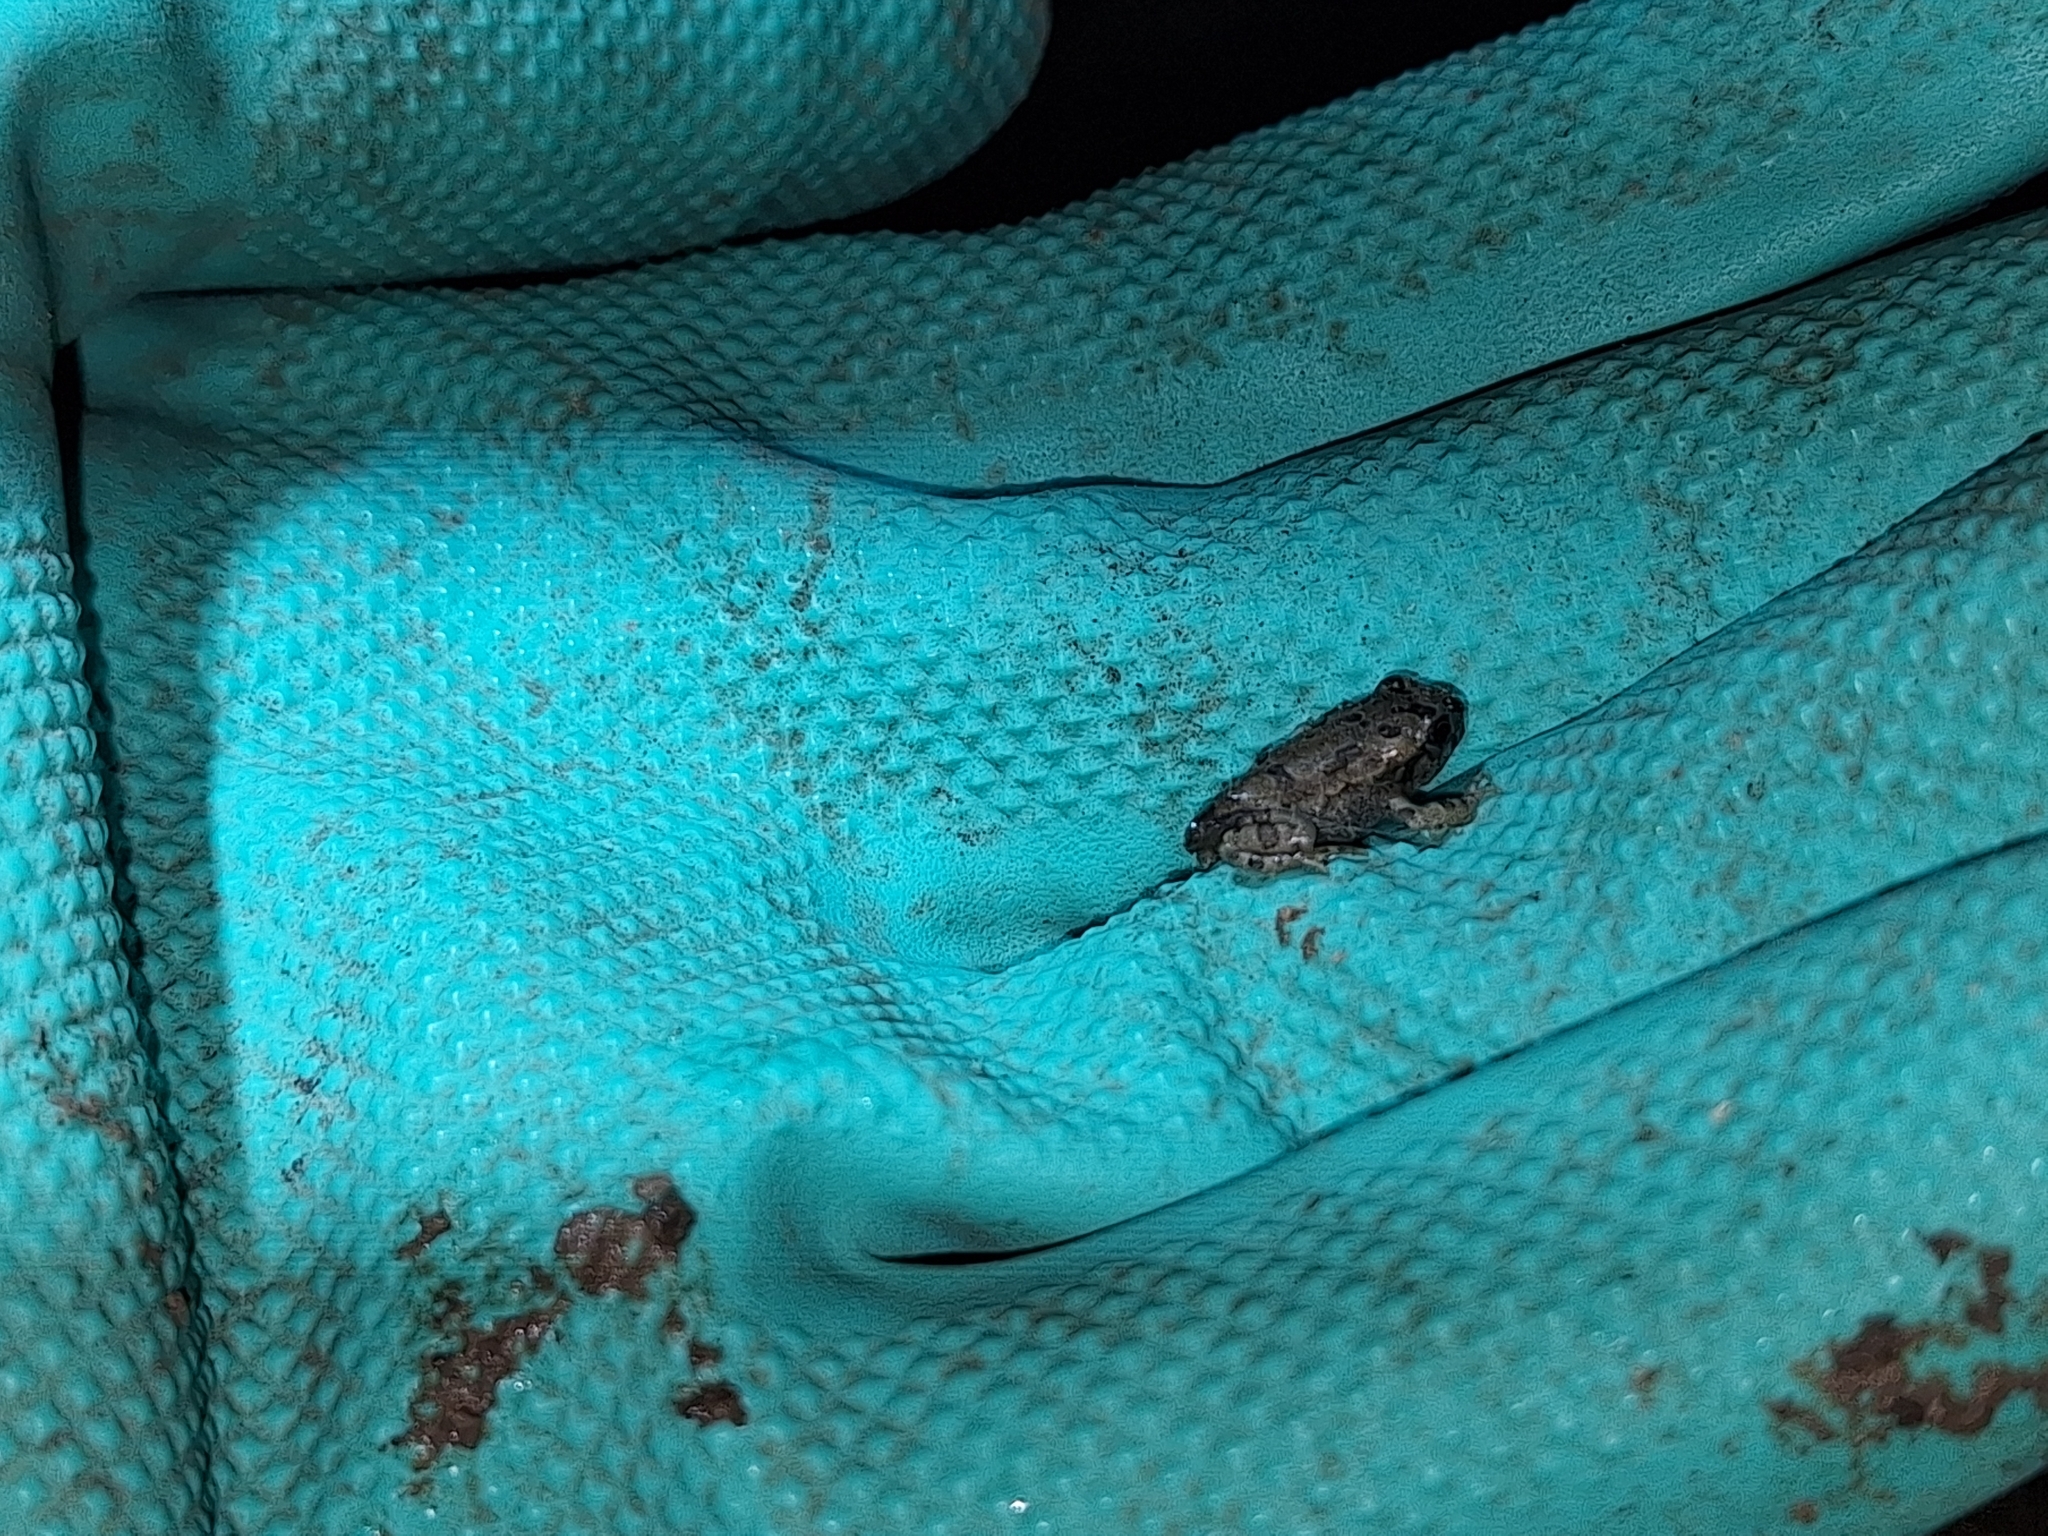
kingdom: Animalia
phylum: Chordata
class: Amphibia
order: Anura
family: Bufonidae
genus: Rhinella
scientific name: Rhinella arenarum
